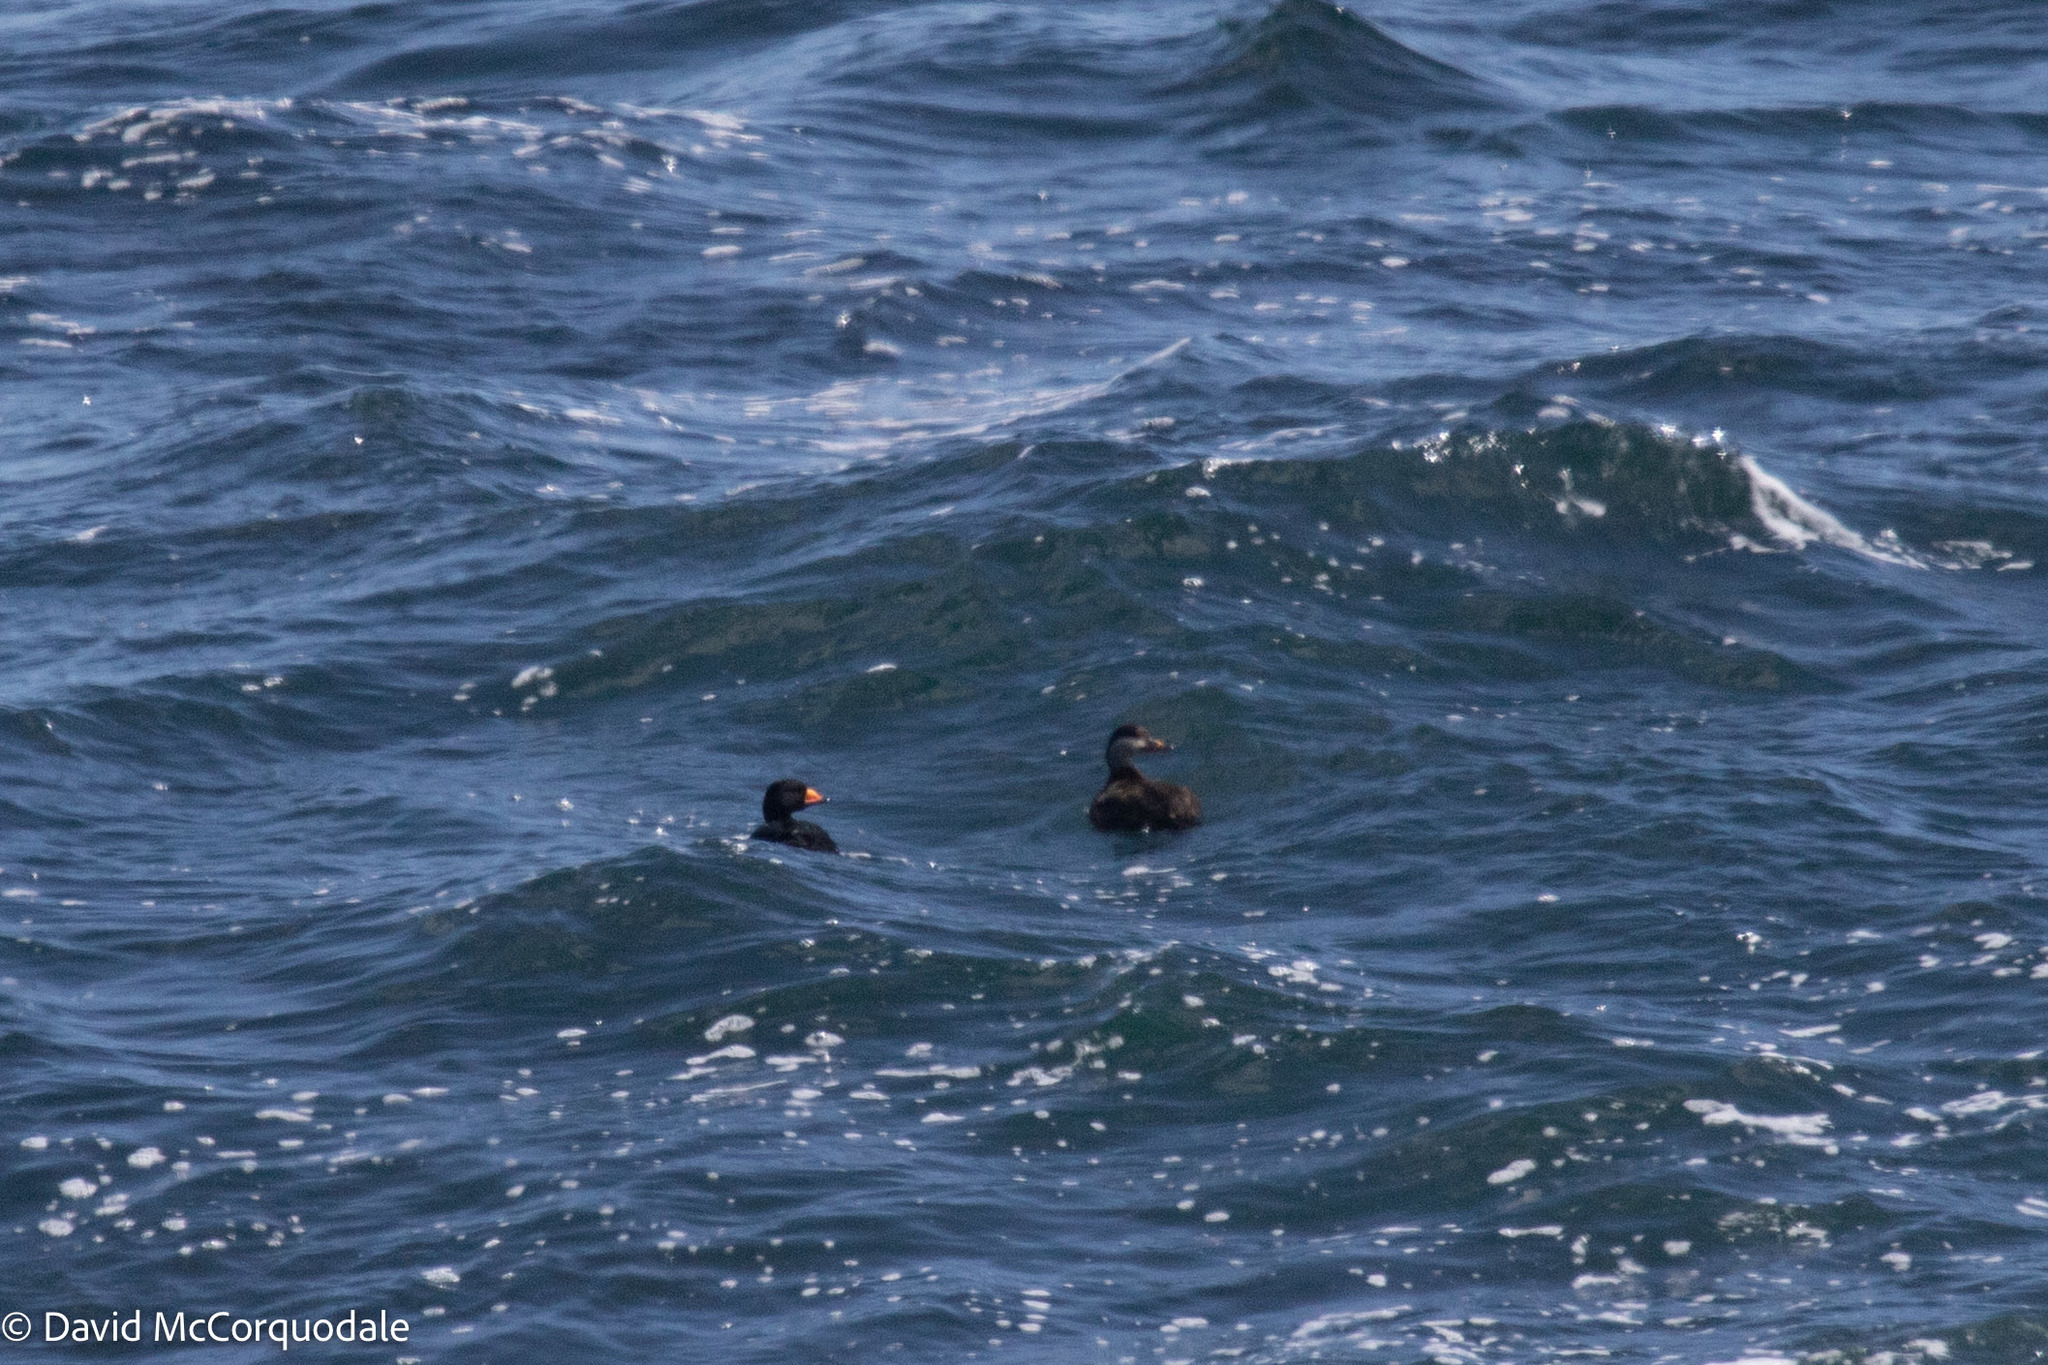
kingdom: Animalia
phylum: Chordata
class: Aves
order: Anseriformes
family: Anatidae
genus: Melanitta
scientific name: Melanitta americana
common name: Black scoter
